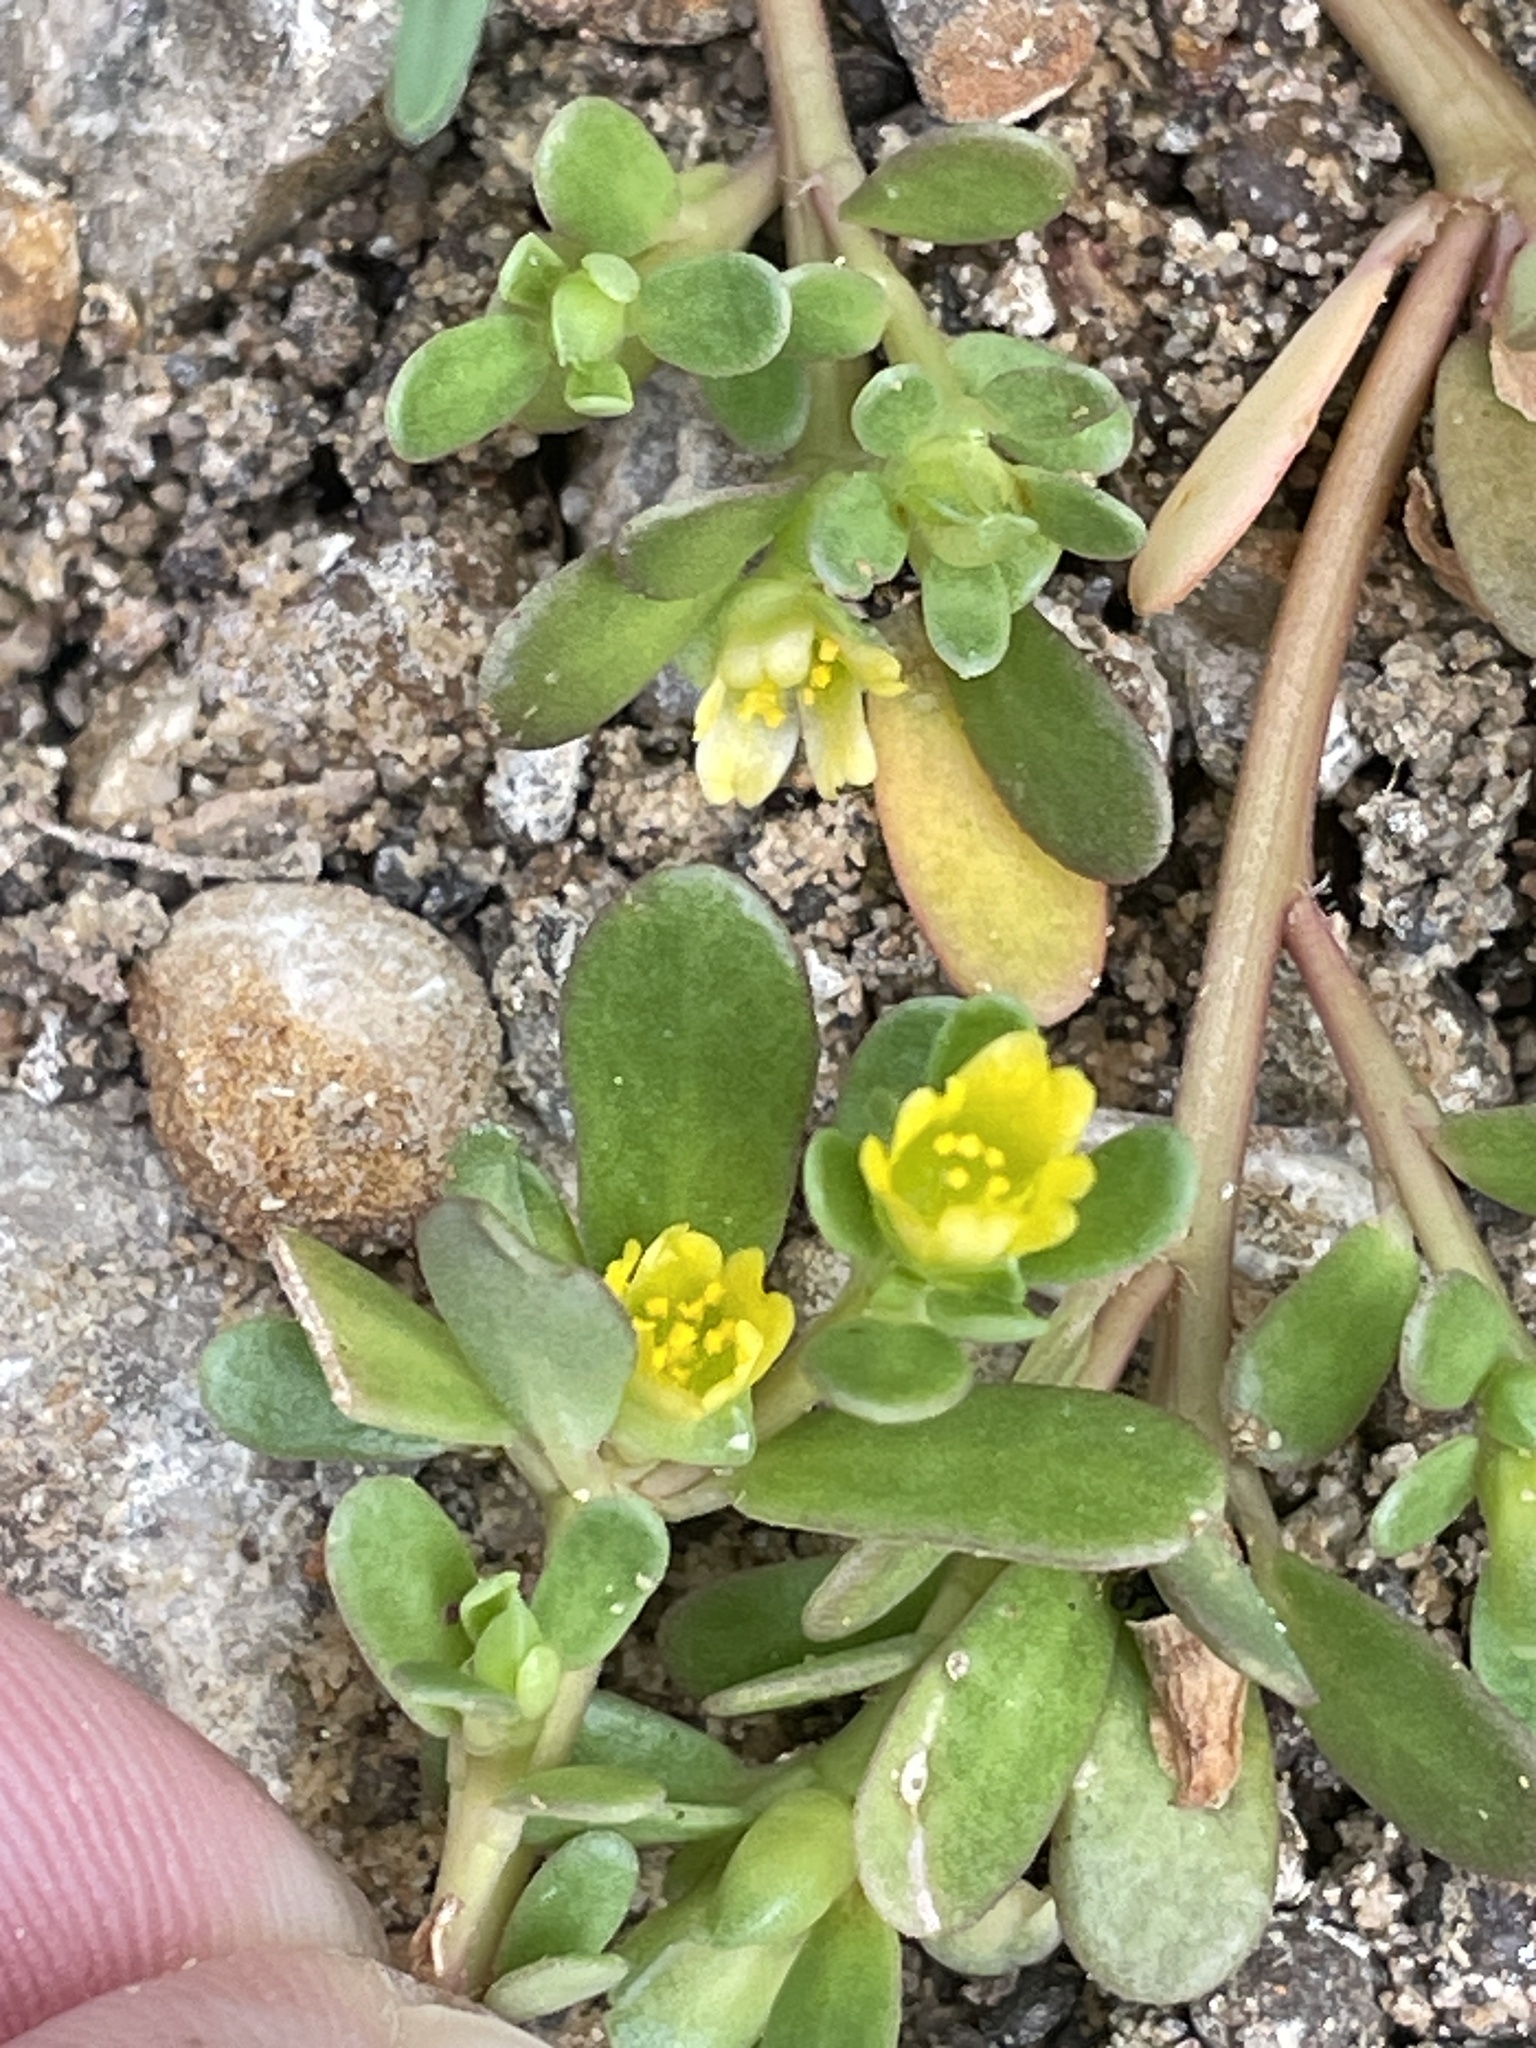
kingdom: Plantae
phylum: Tracheophyta
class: Magnoliopsida
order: Caryophyllales
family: Portulacaceae
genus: Portulaca
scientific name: Portulaca oleracea
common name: Common purslane
